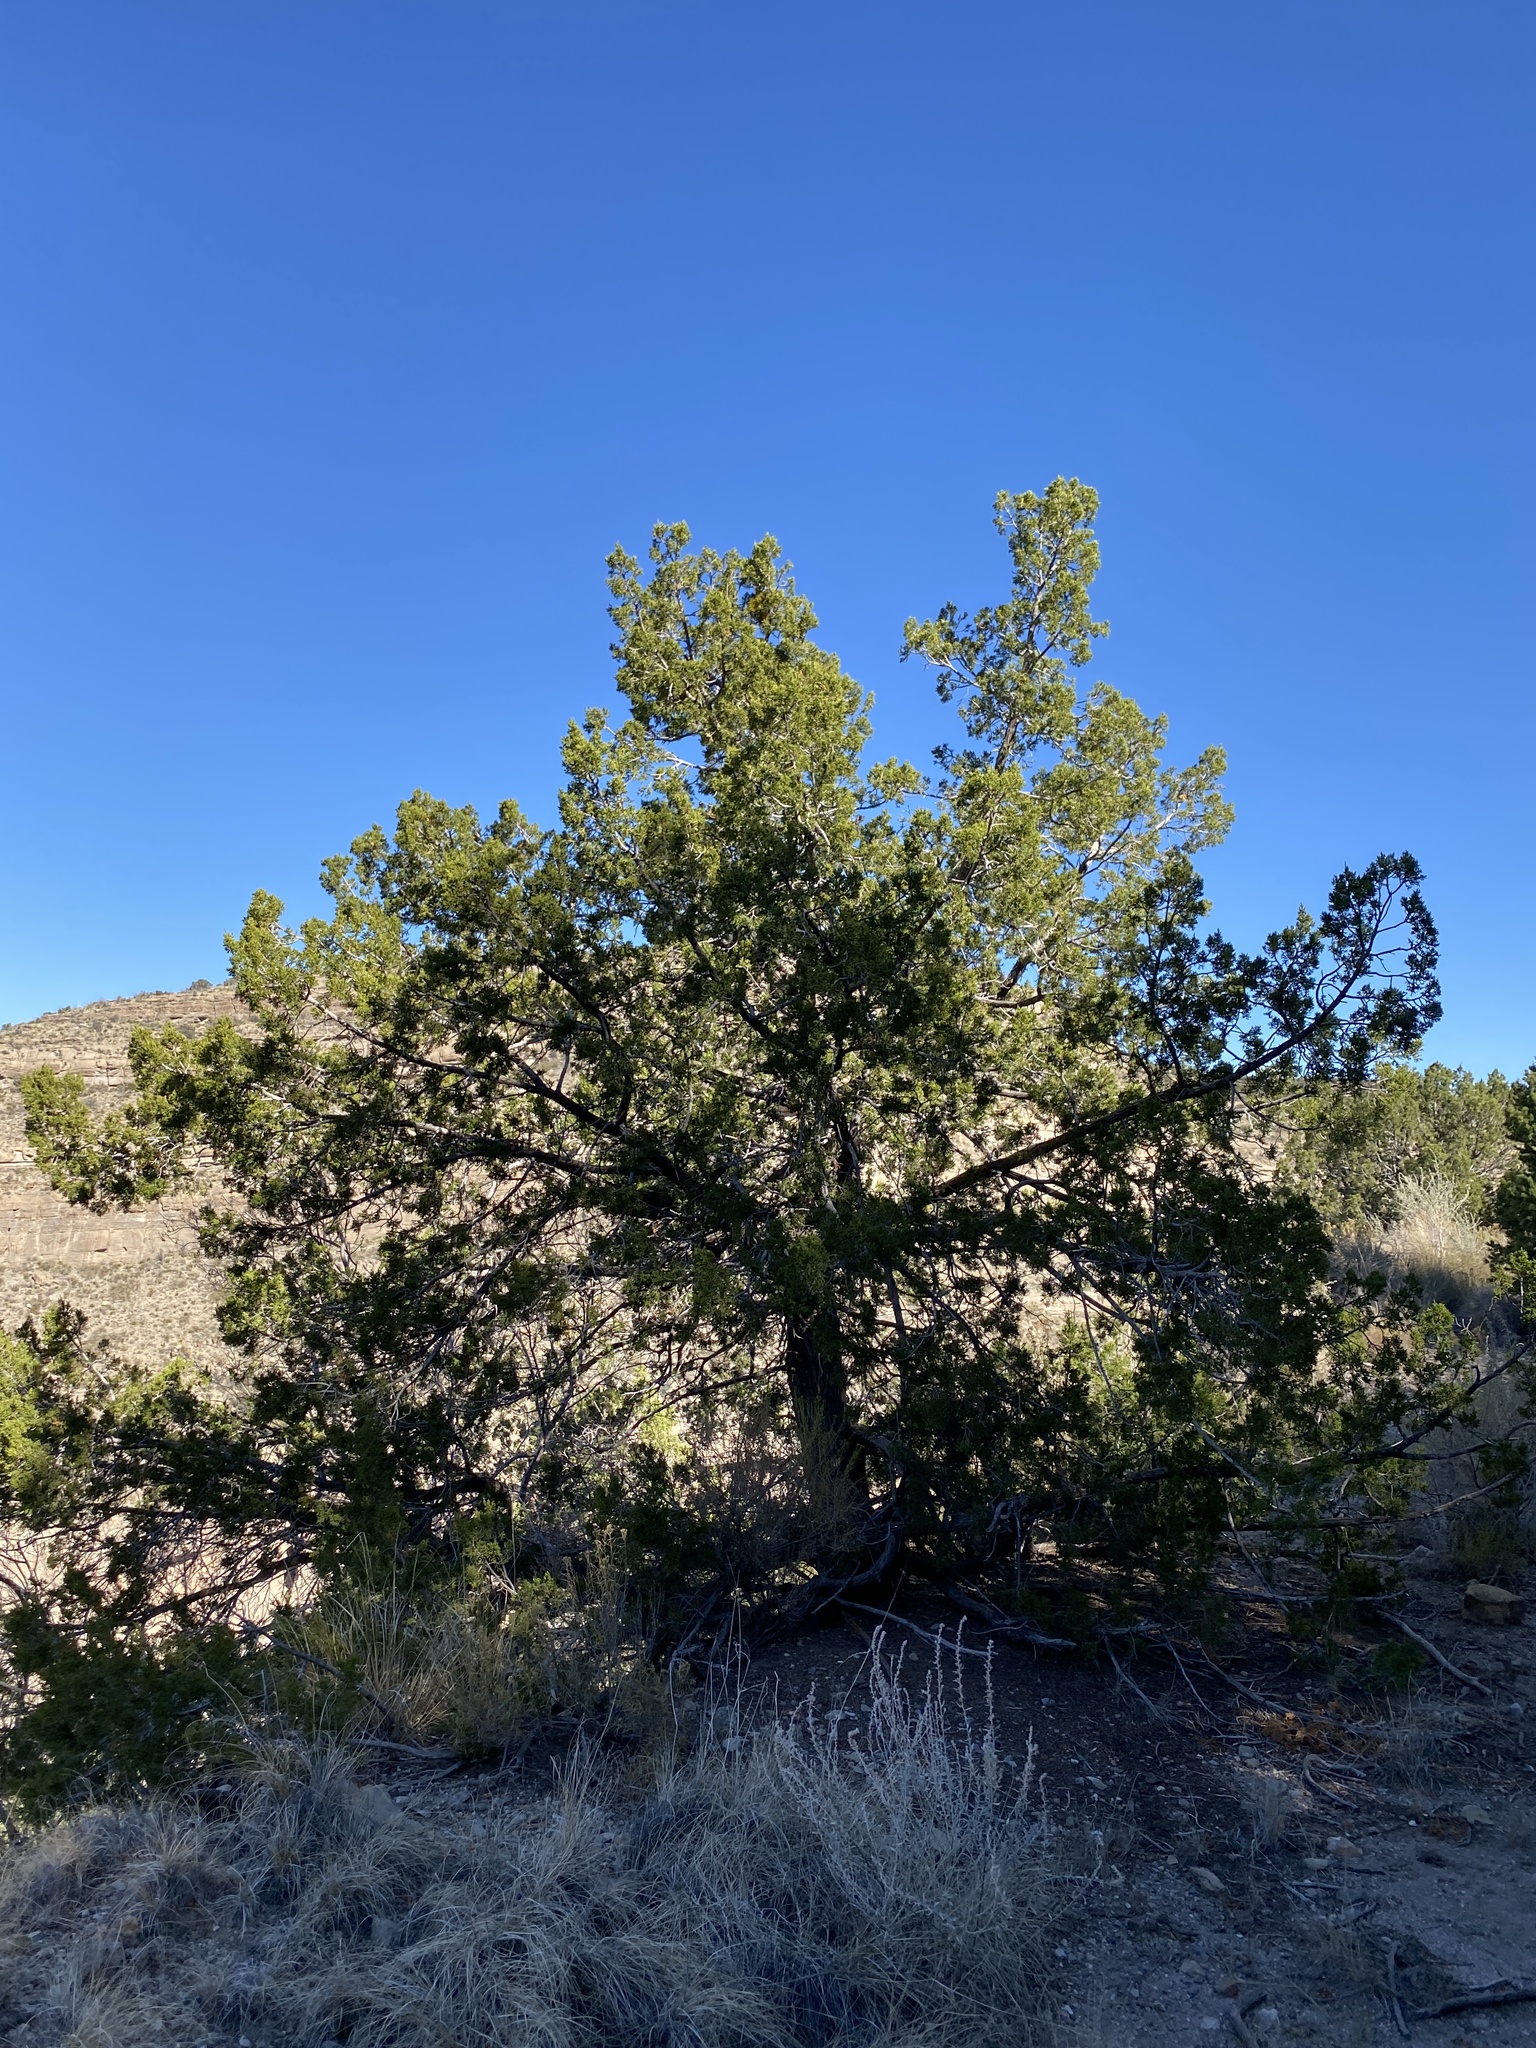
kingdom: Plantae
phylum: Tracheophyta
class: Pinopsida
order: Pinales
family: Cupressaceae
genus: Juniperus
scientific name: Juniperus monosperma
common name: One-seed juniper
